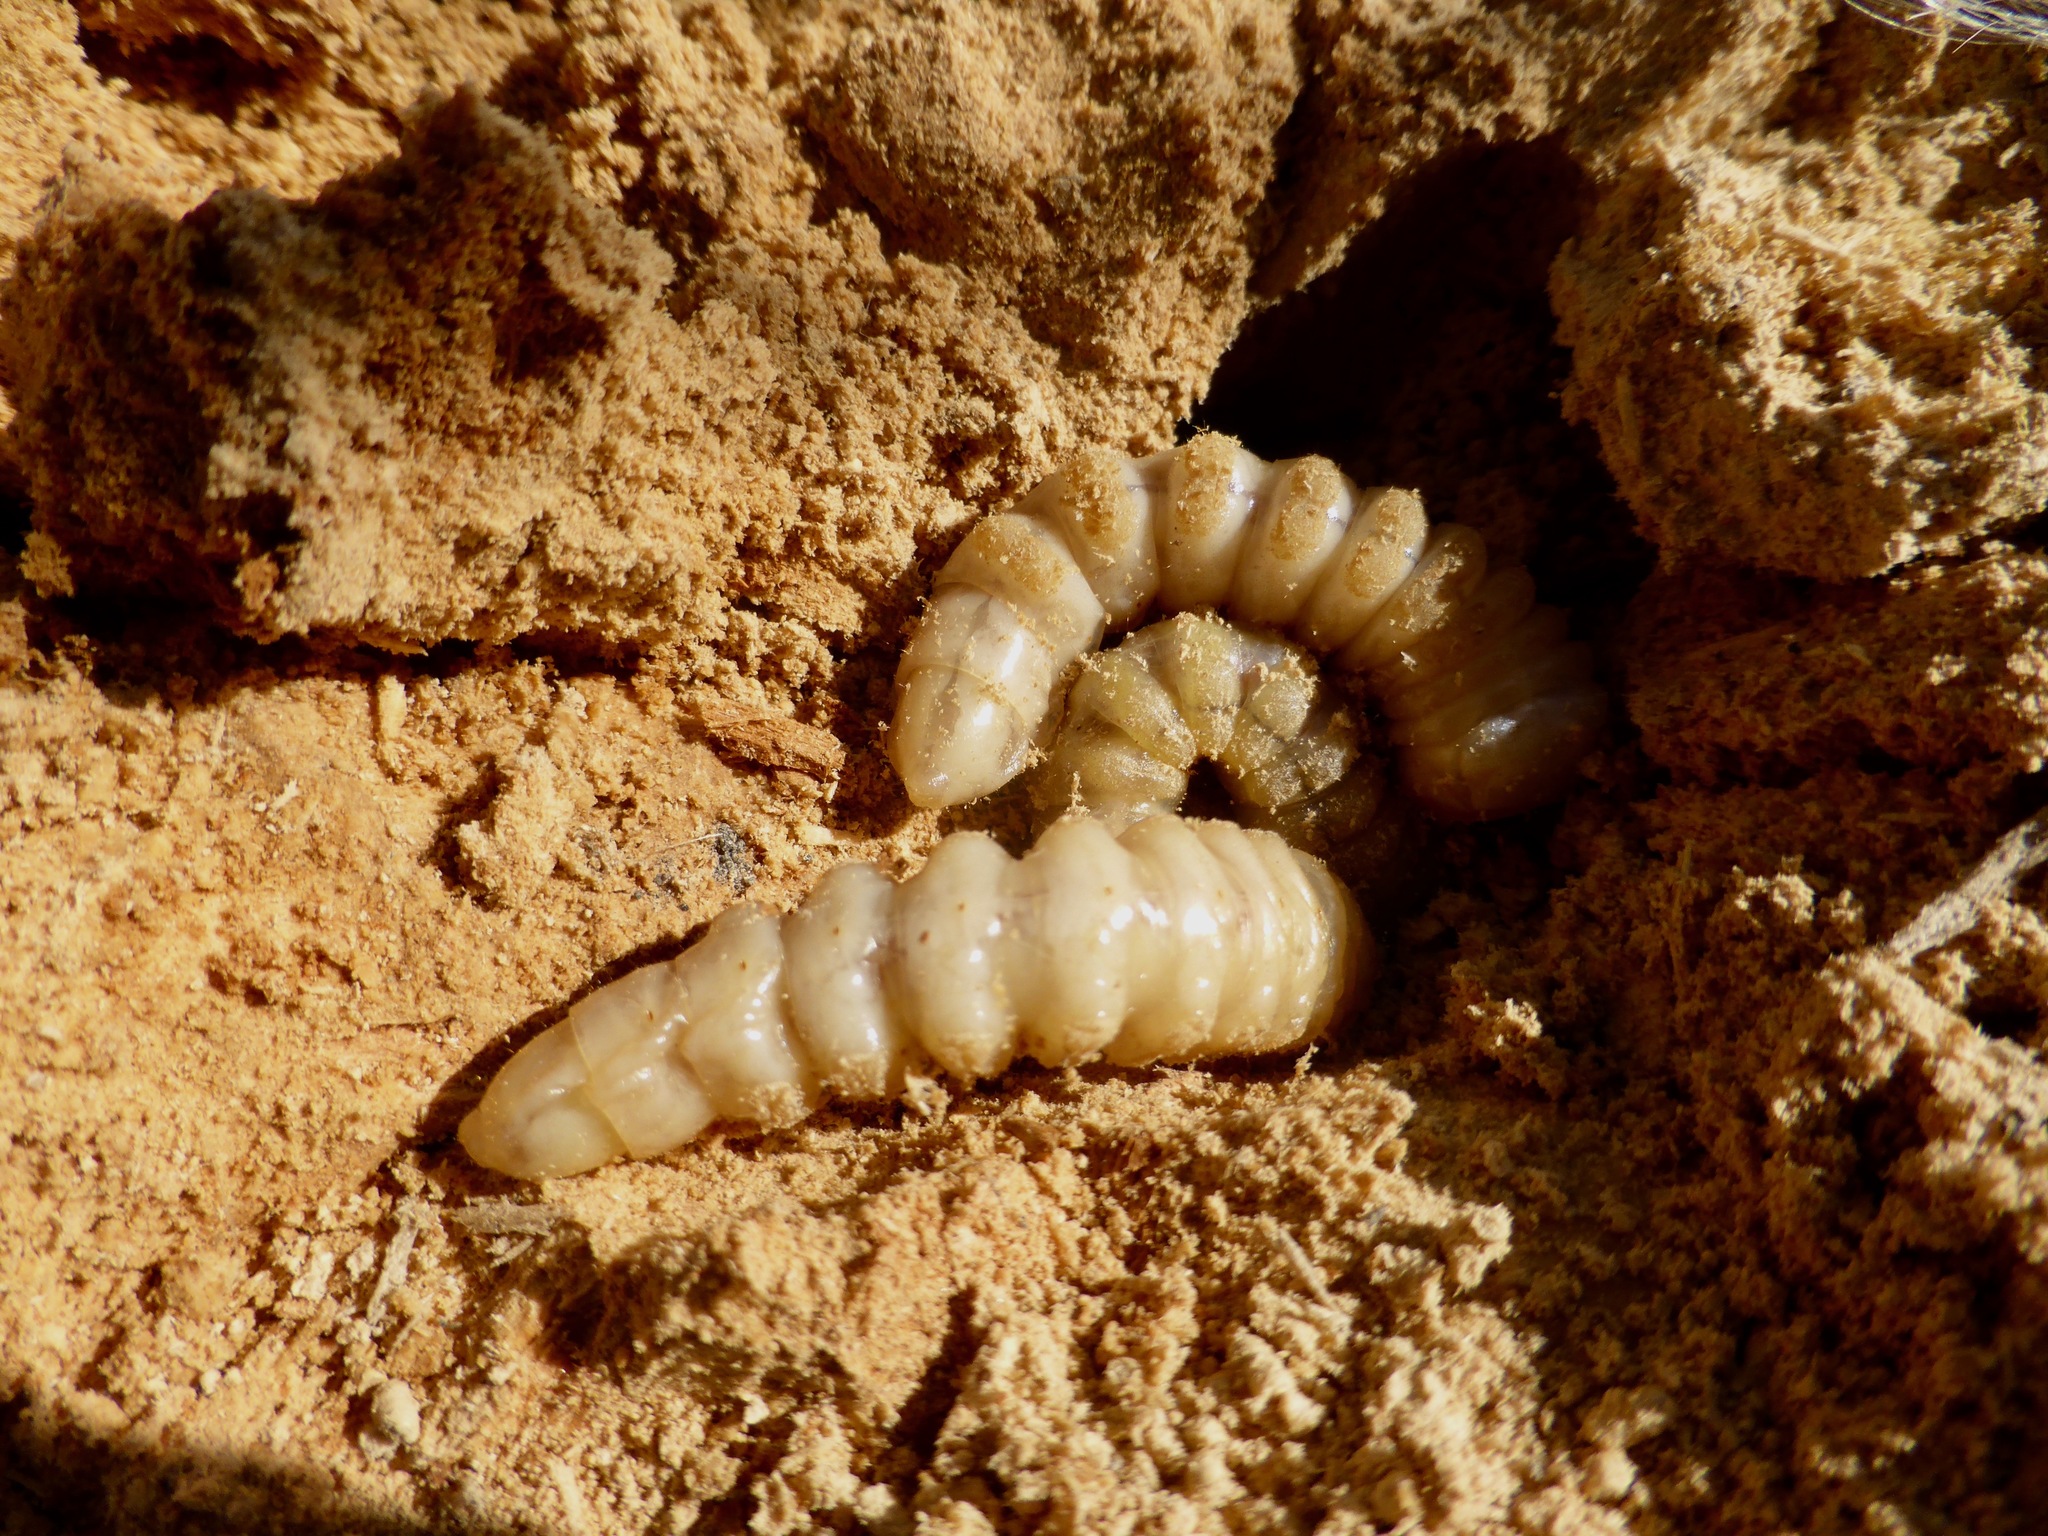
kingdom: Animalia
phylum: Arthropoda
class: Insecta
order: Coleoptera
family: Cerambycidae
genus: Prionoplus
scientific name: Prionoplus reticularis
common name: Huhu beetle
